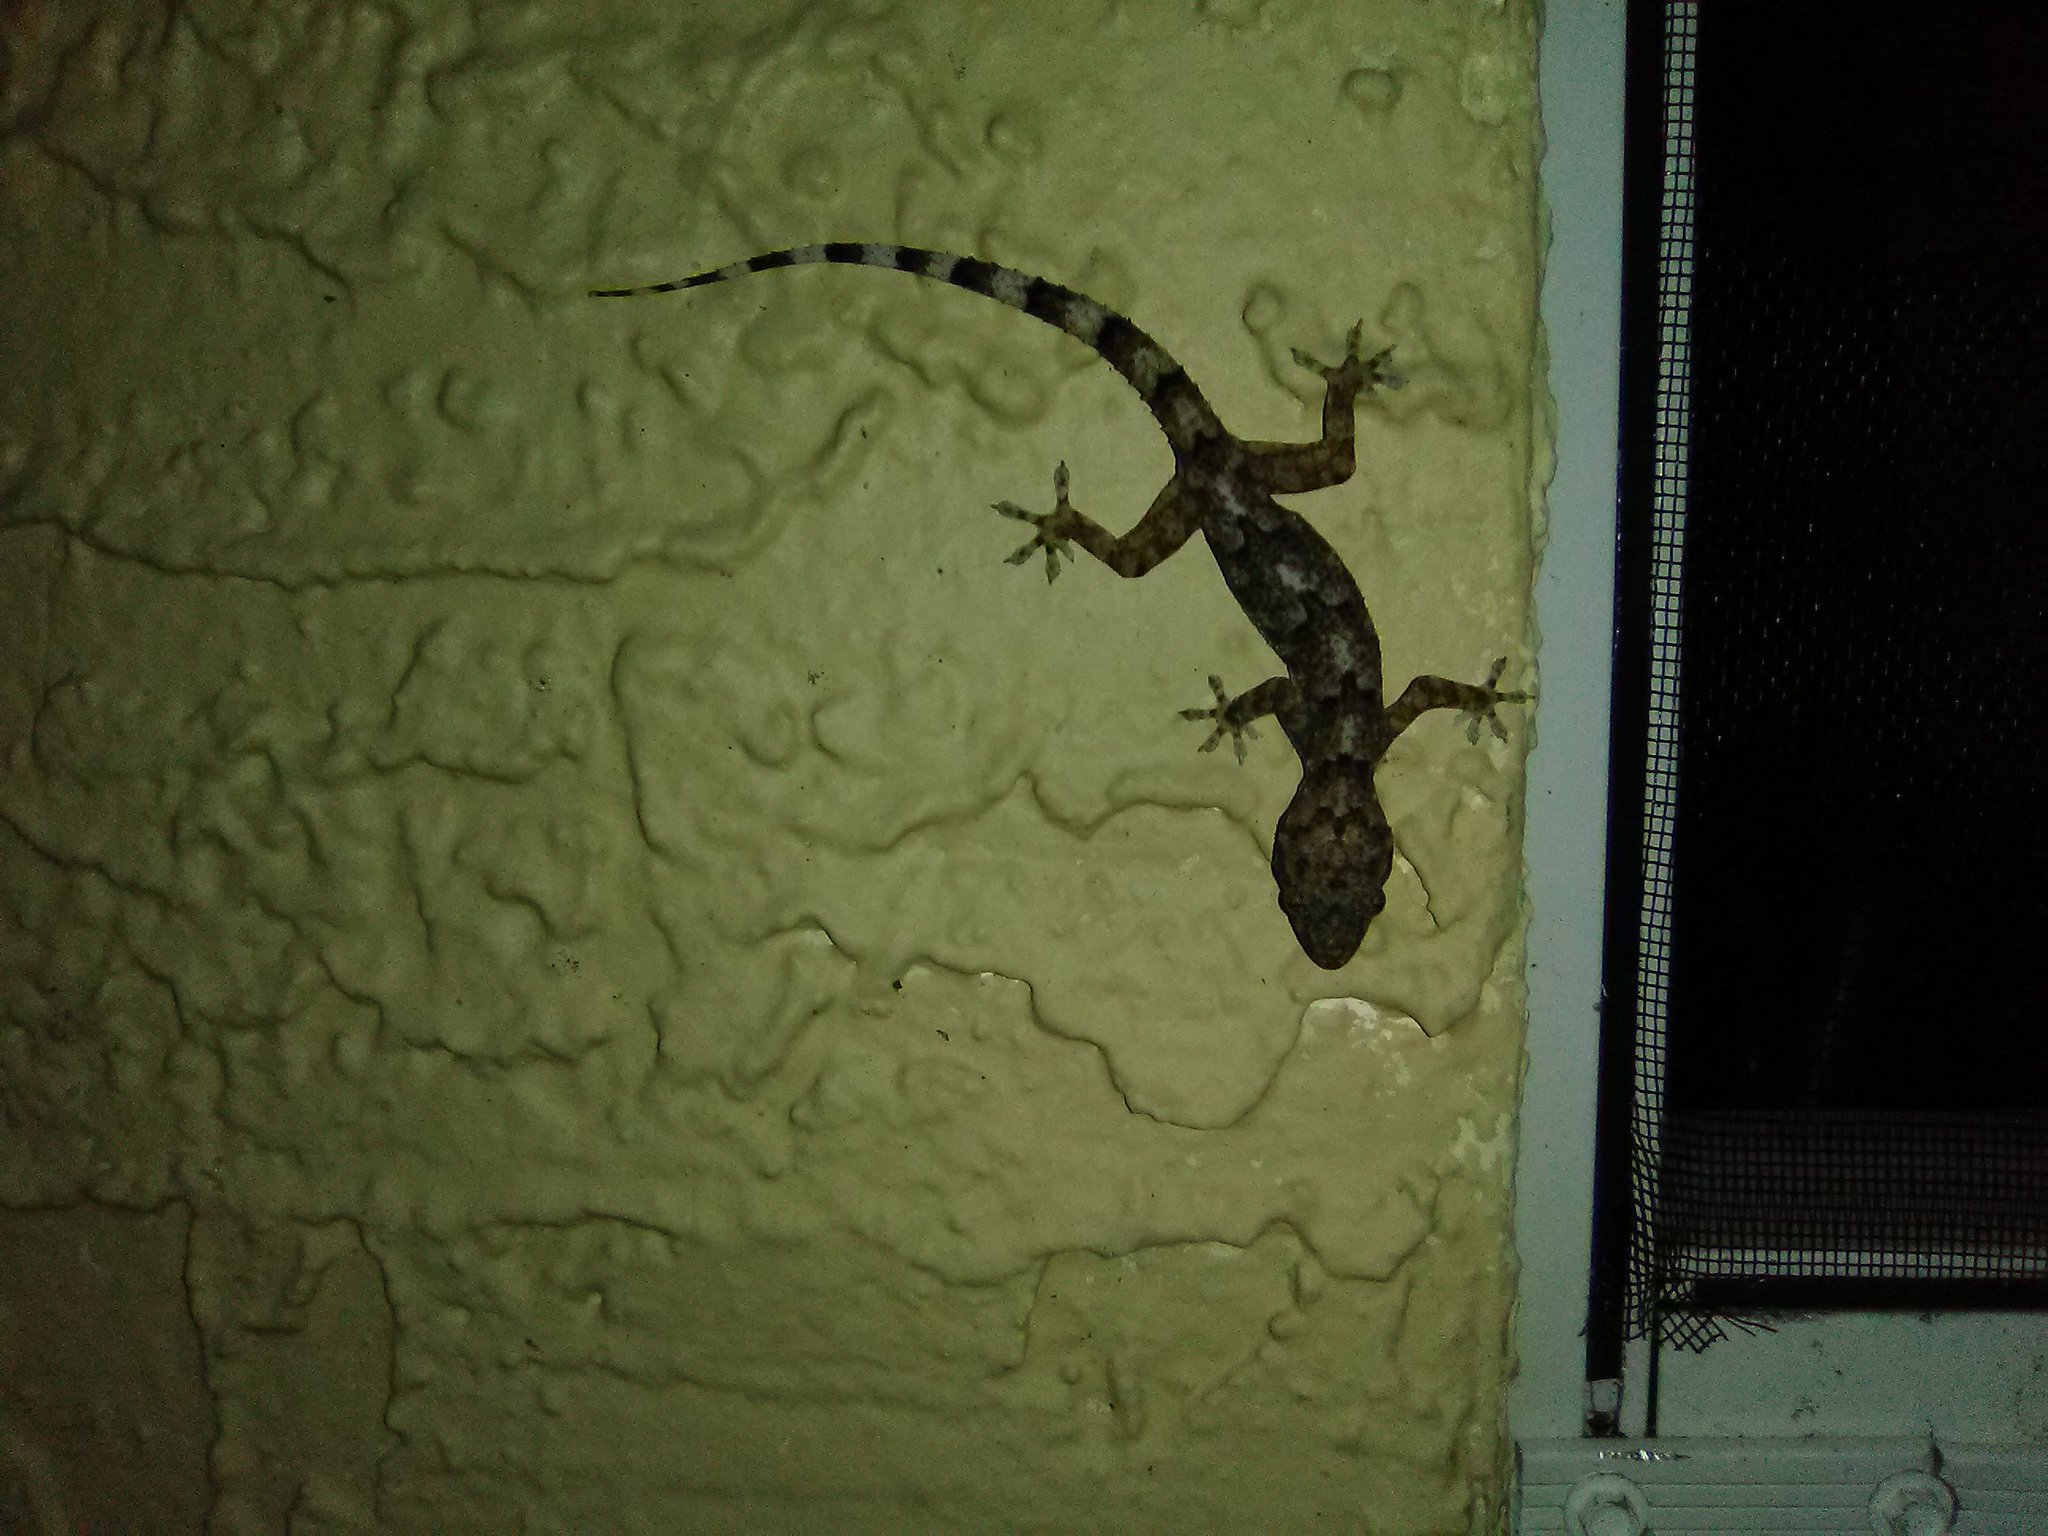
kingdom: Animalia
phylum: Chordata
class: Squamata
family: Gekkonidae
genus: Hemidactylus
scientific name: Hemidactylus mabouia
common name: House gecko
